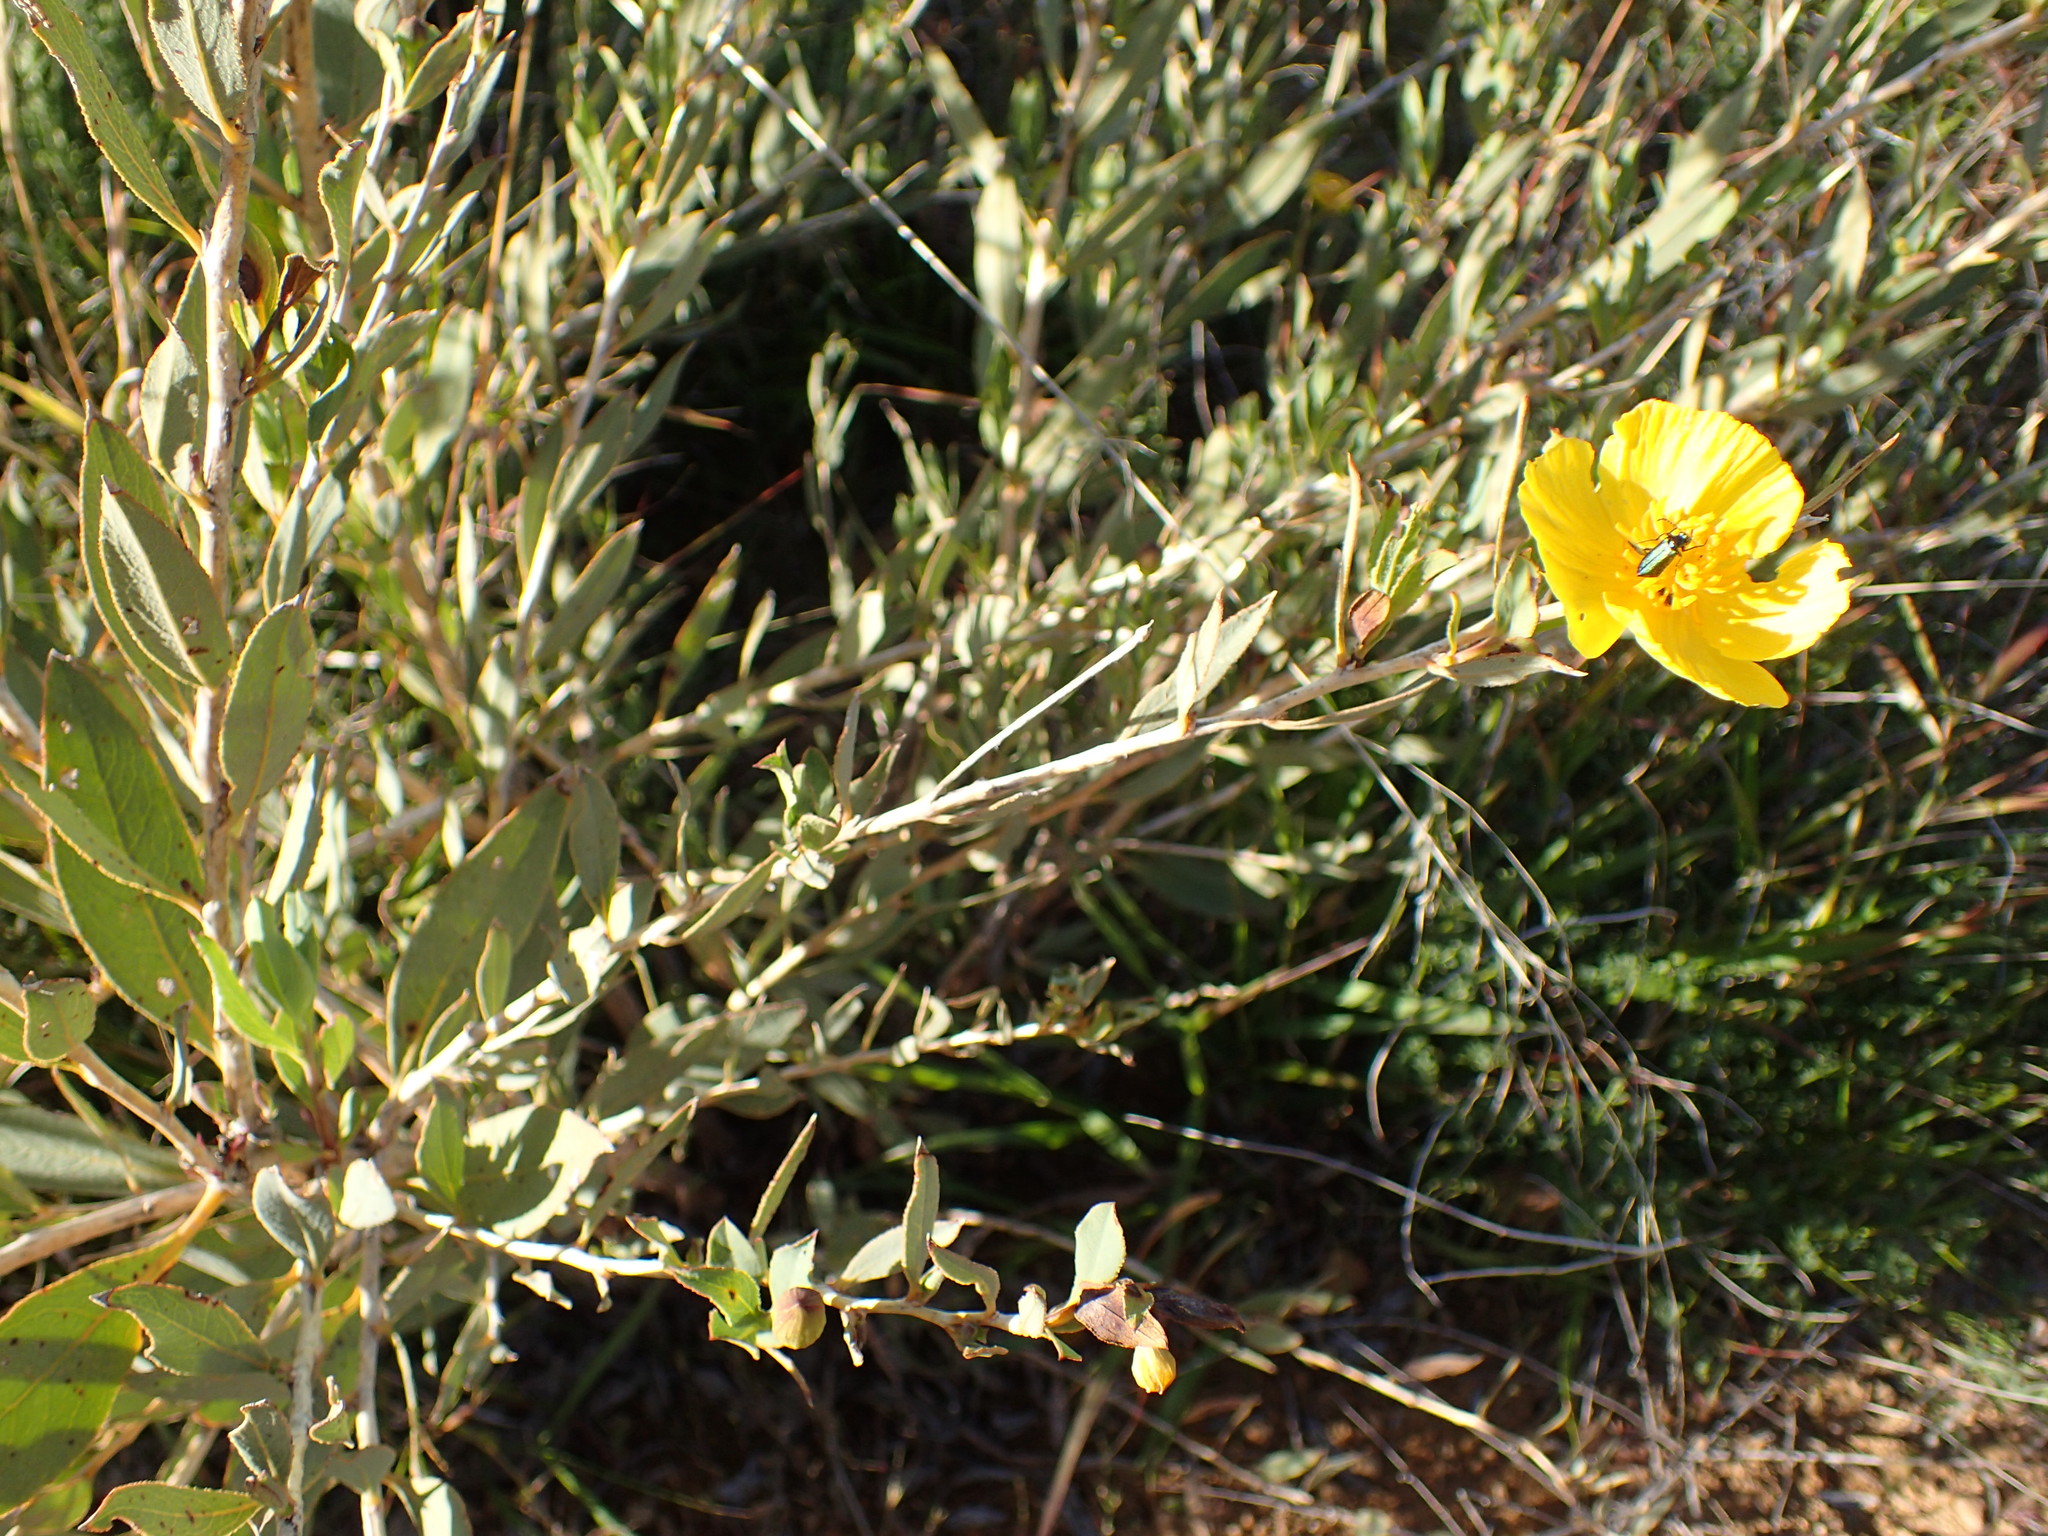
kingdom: Plantae
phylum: Tracheophyta
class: Magnoliopsida
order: Ranunculales
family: Papaveraceae
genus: Dendromecon
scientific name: Dendromecon rigida
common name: Tree poppy
